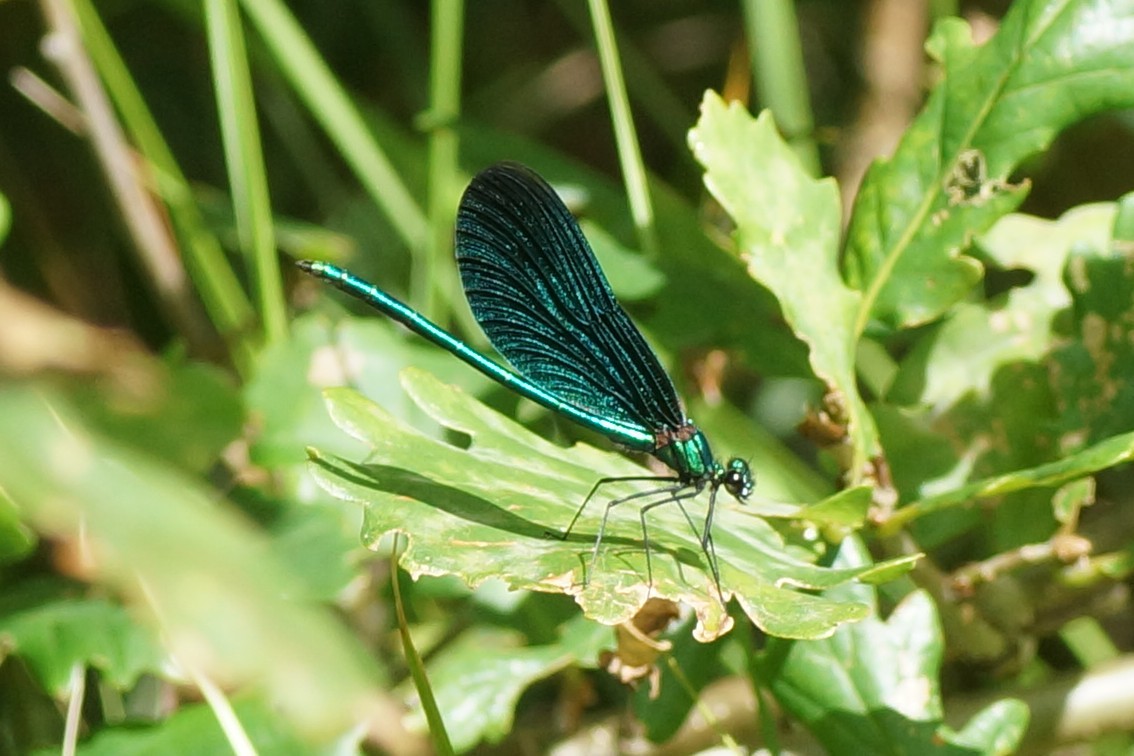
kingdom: Animalia
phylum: Arthropoda
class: Insecta
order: Odonata
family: Calopterygidae
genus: Calopteryx
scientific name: Calopteryx virgo
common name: Beautiful demoiselle
